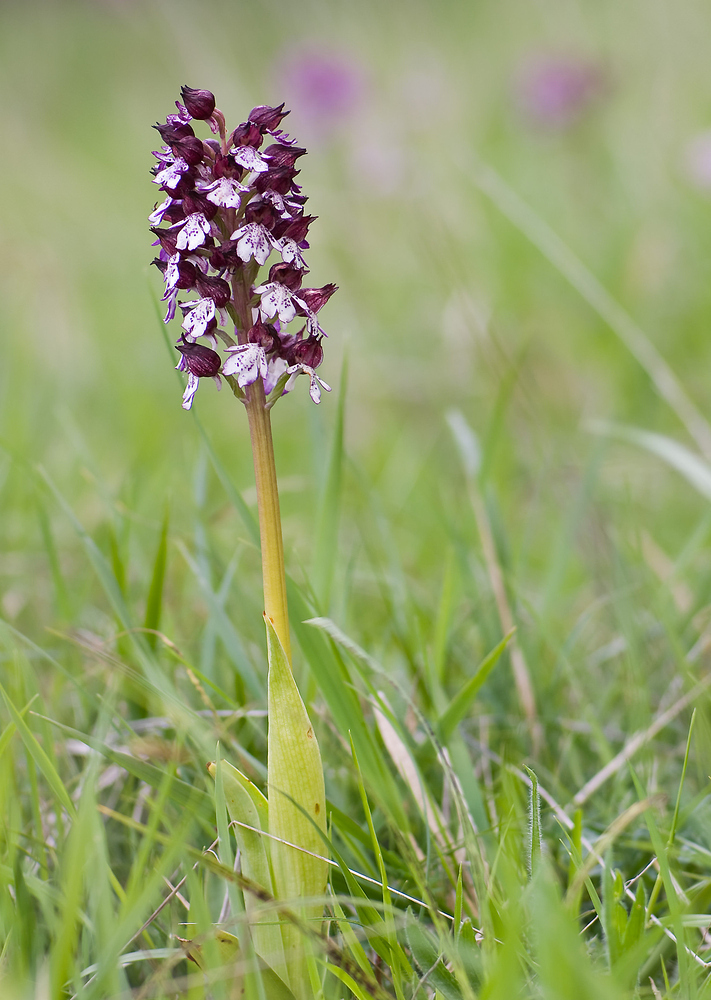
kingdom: Plantae
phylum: Tracheophyta
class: Liliopsida
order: Asparagales
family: Orchidaceae
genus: Orchis
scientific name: Orchis purpurea
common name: Lady orchid
